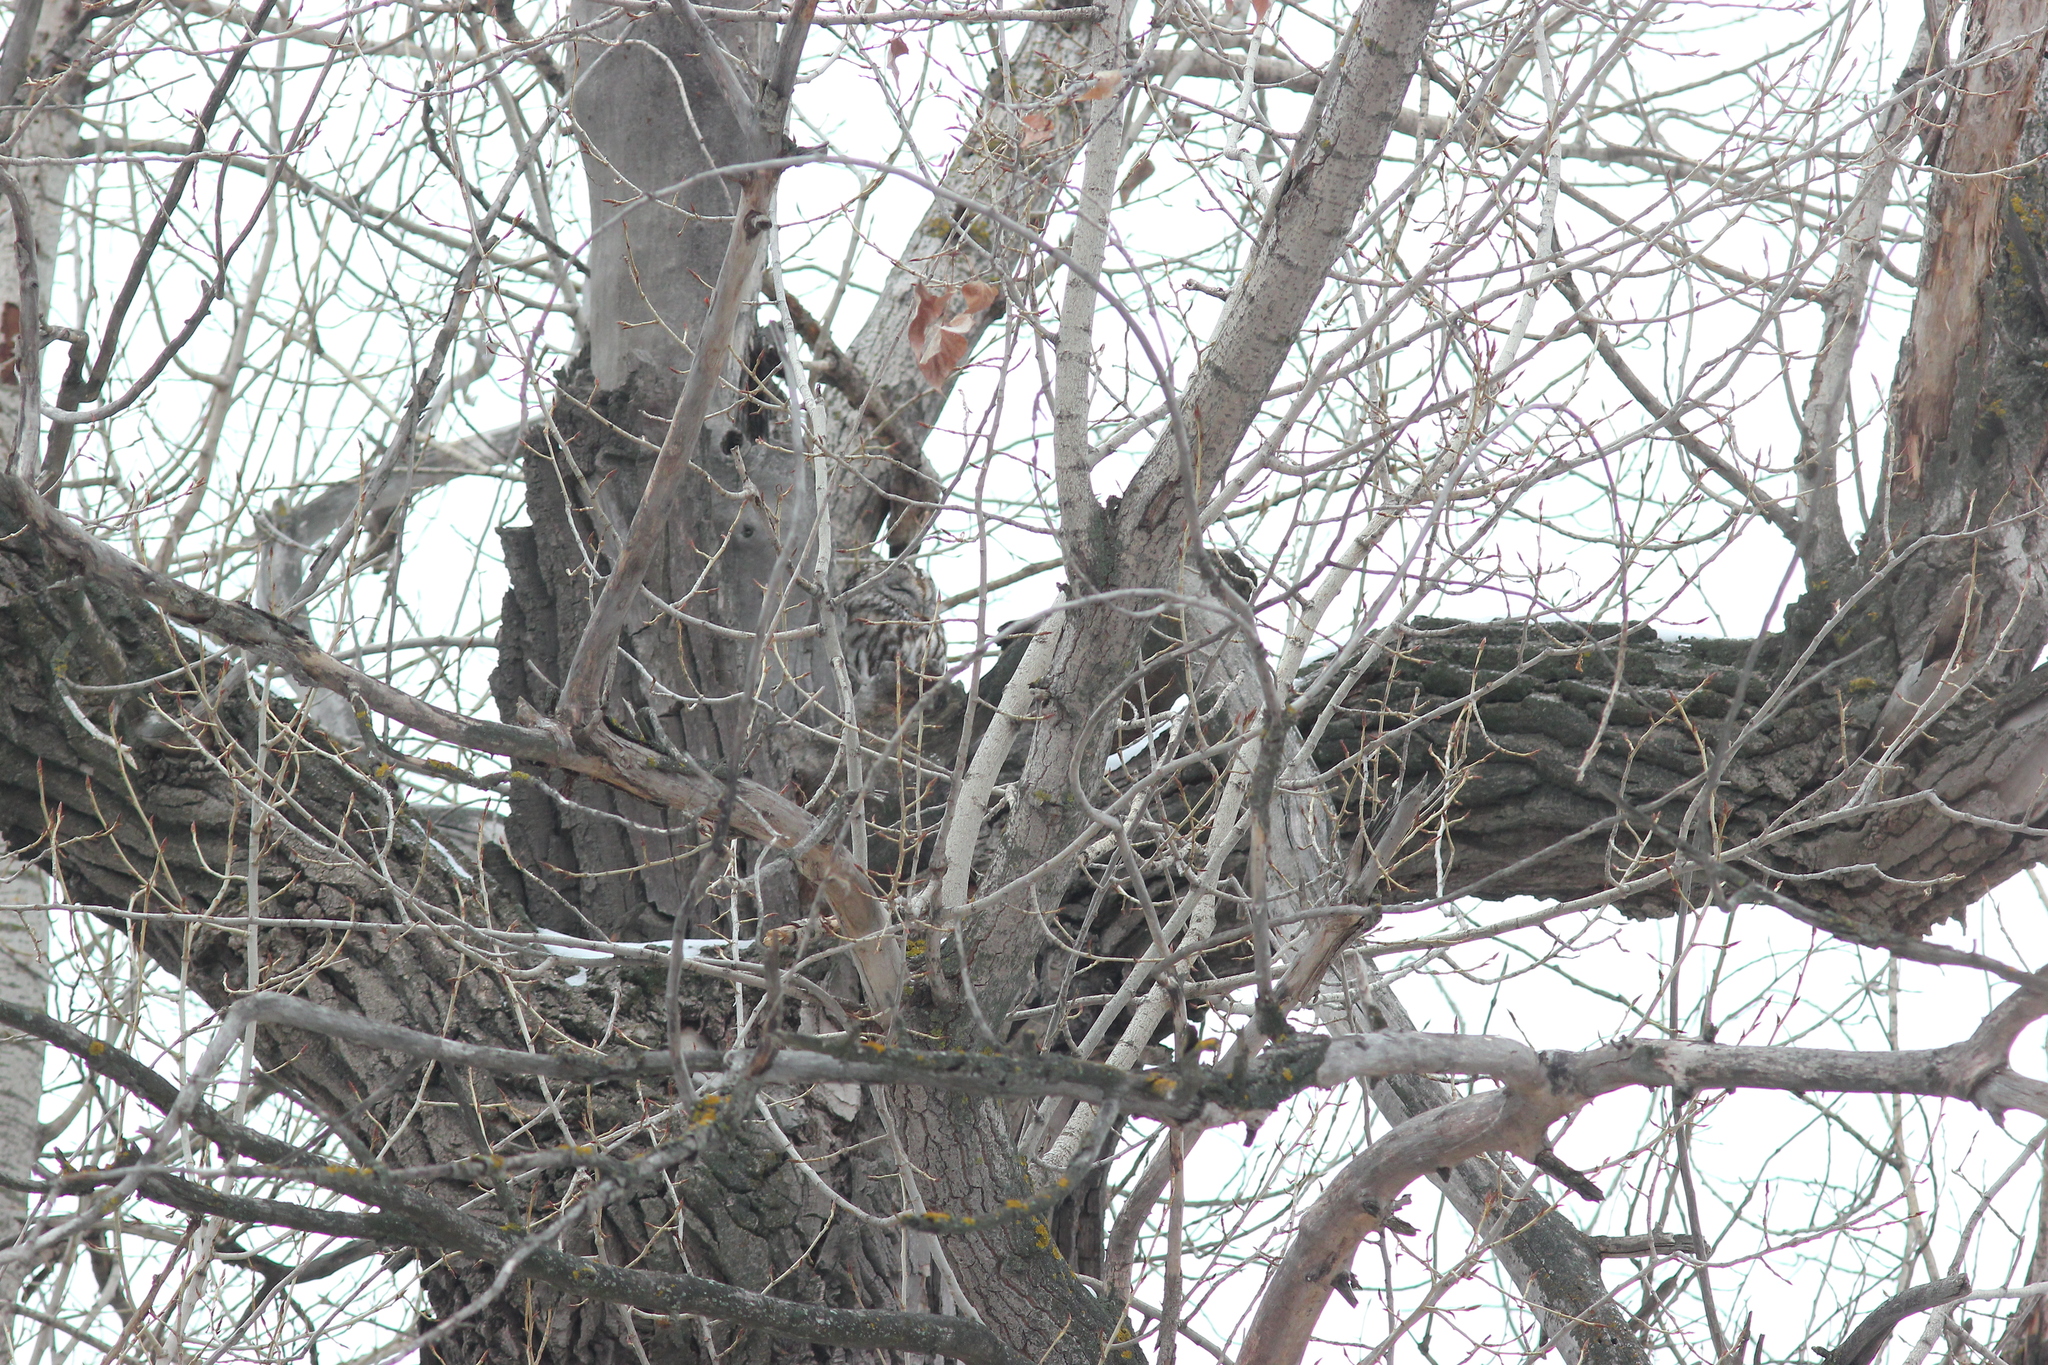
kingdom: Animalia
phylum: Chordata
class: Aves
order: Strigiformes
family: Strigidae
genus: Strix
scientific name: Strix aluco
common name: Tawny owl
